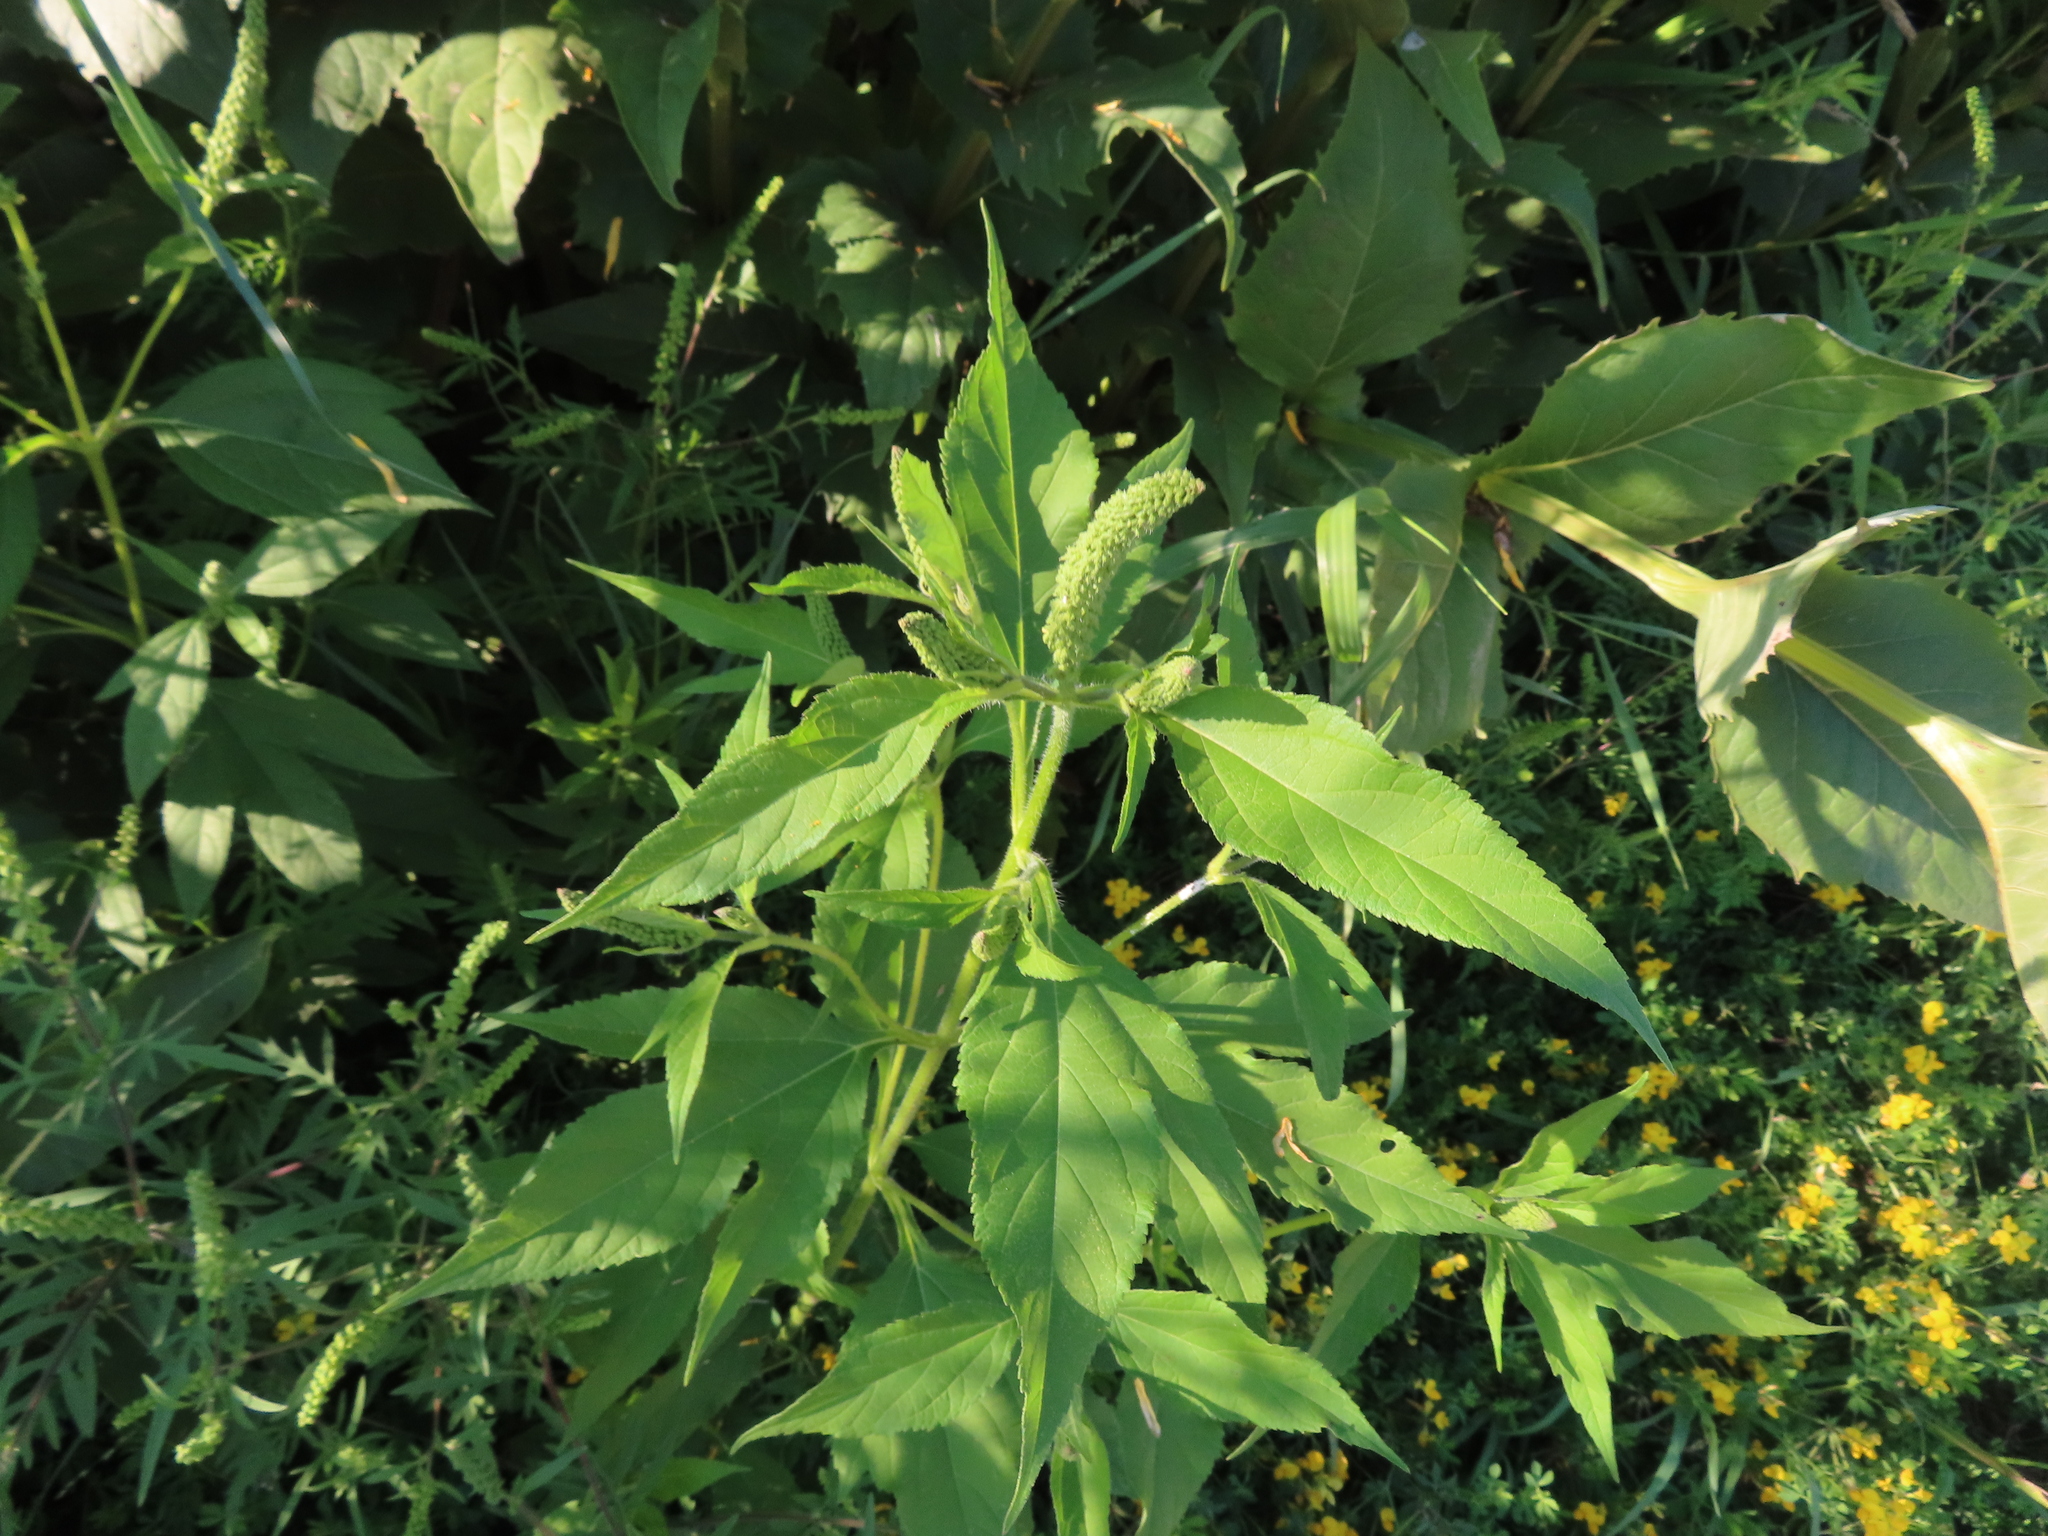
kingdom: Plantae
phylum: Tracheophyta
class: Magnoliopsida
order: Asterales
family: Asteraceae
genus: Ambrosia
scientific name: Ambrosia trifida
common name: Giant ragweed
